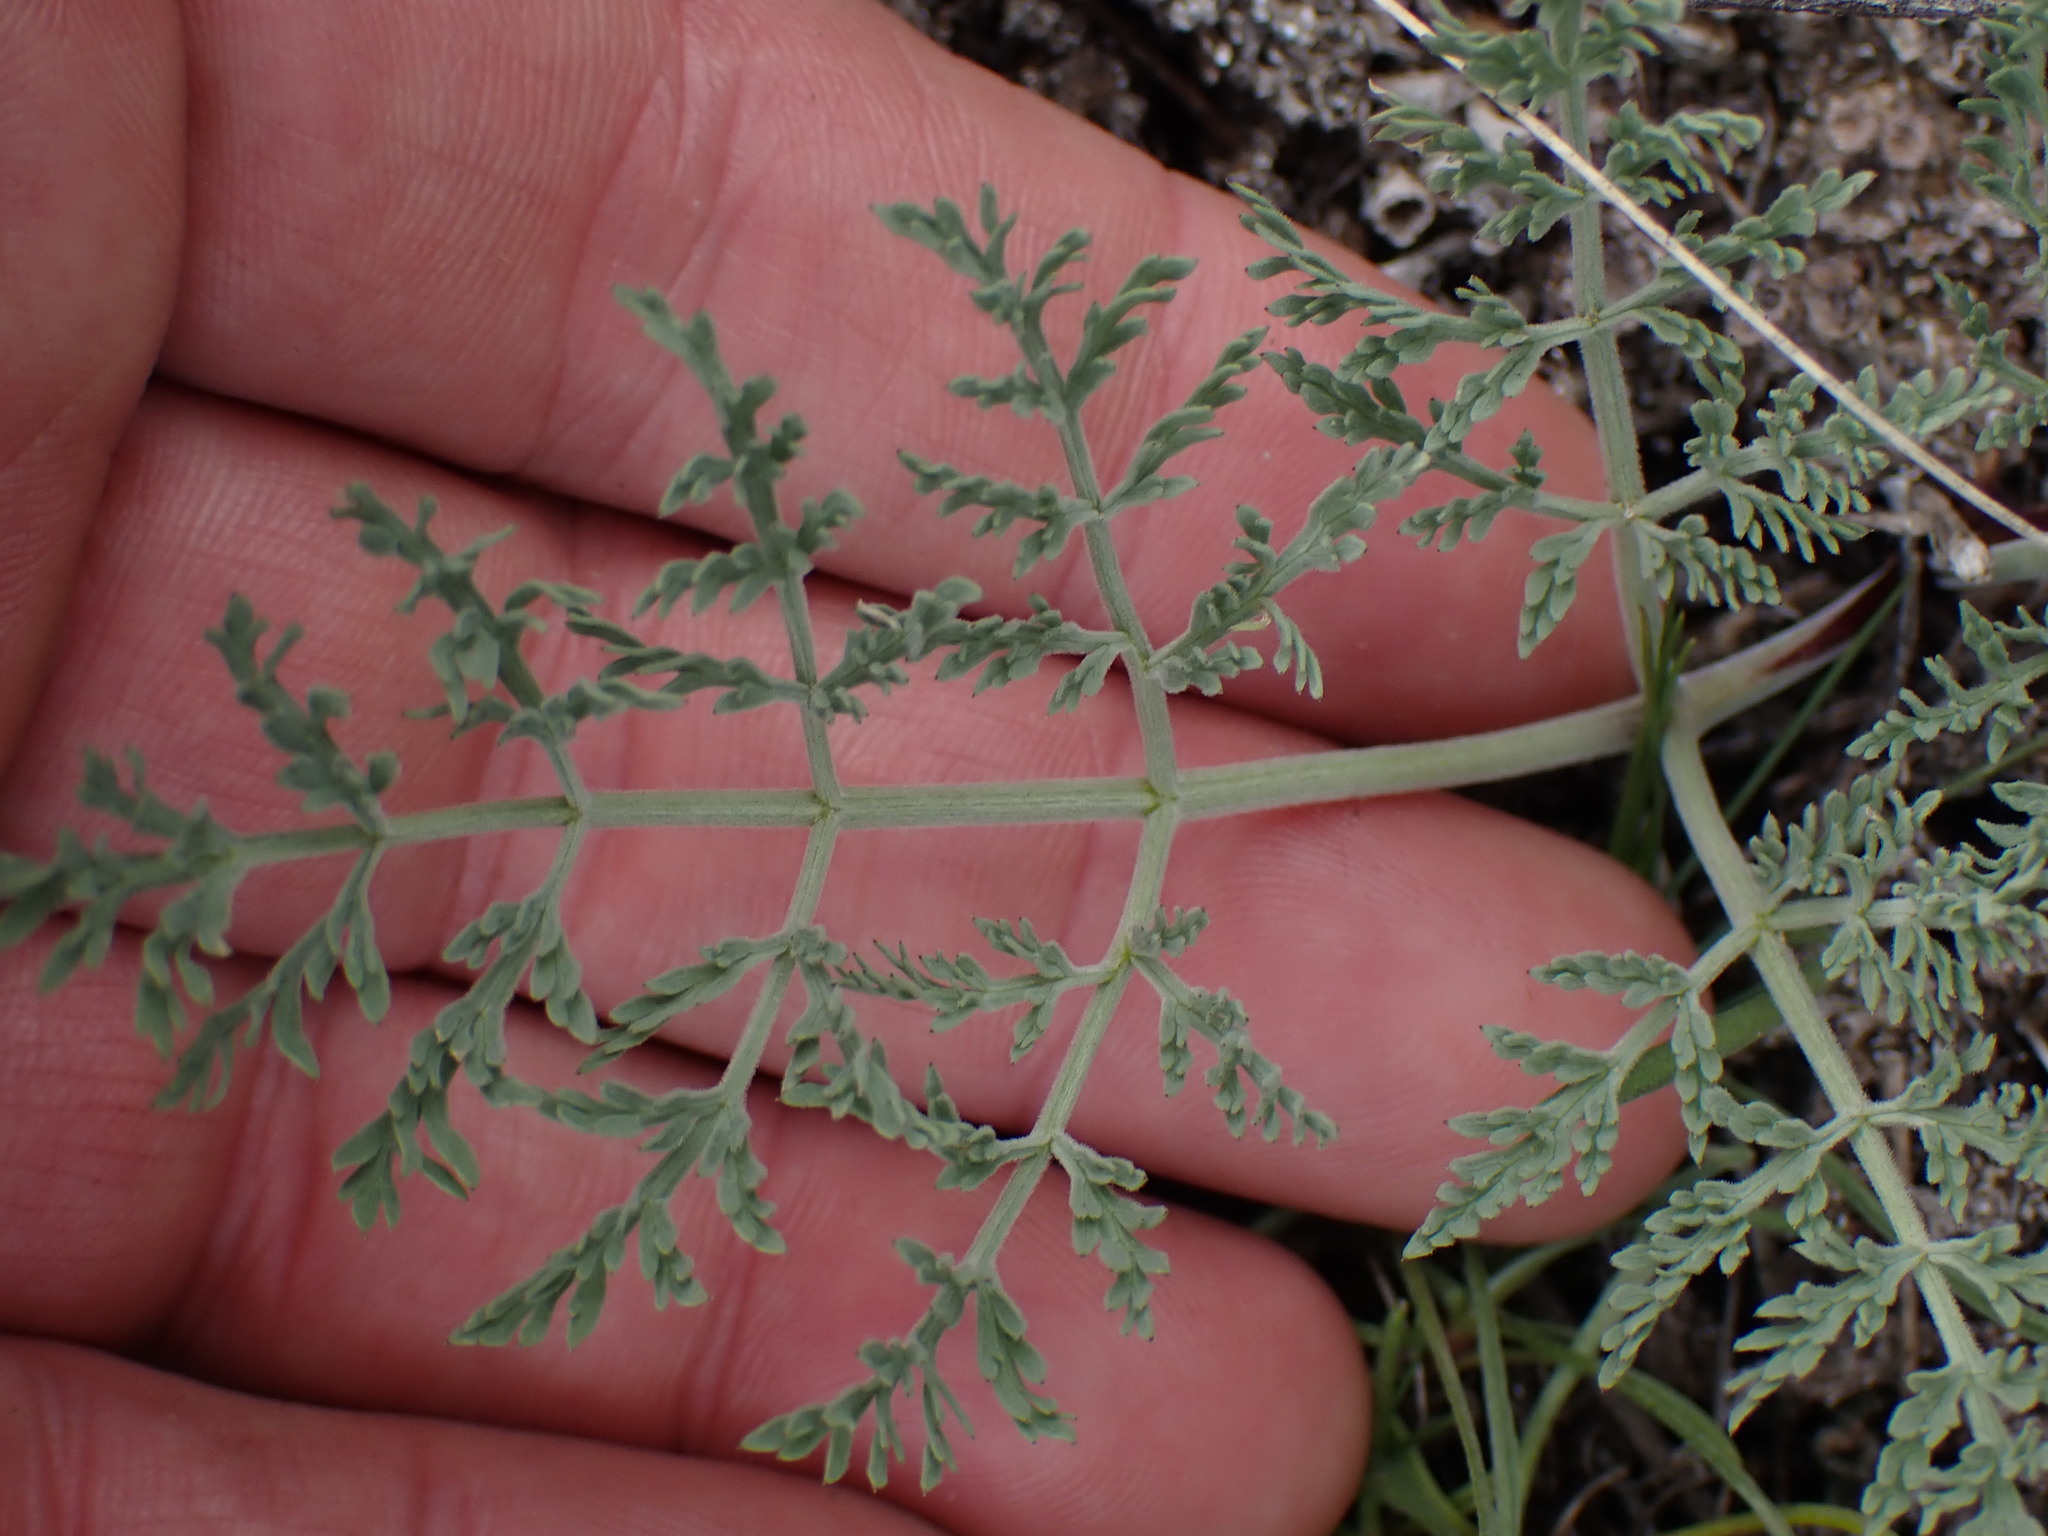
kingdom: Plantae
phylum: Tracheophyta
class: Magnoliopsida
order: Apiales
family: Apiaceae
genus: Lomatium
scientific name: Lomatium macrocarpum
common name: Big-seed biscuitroot
